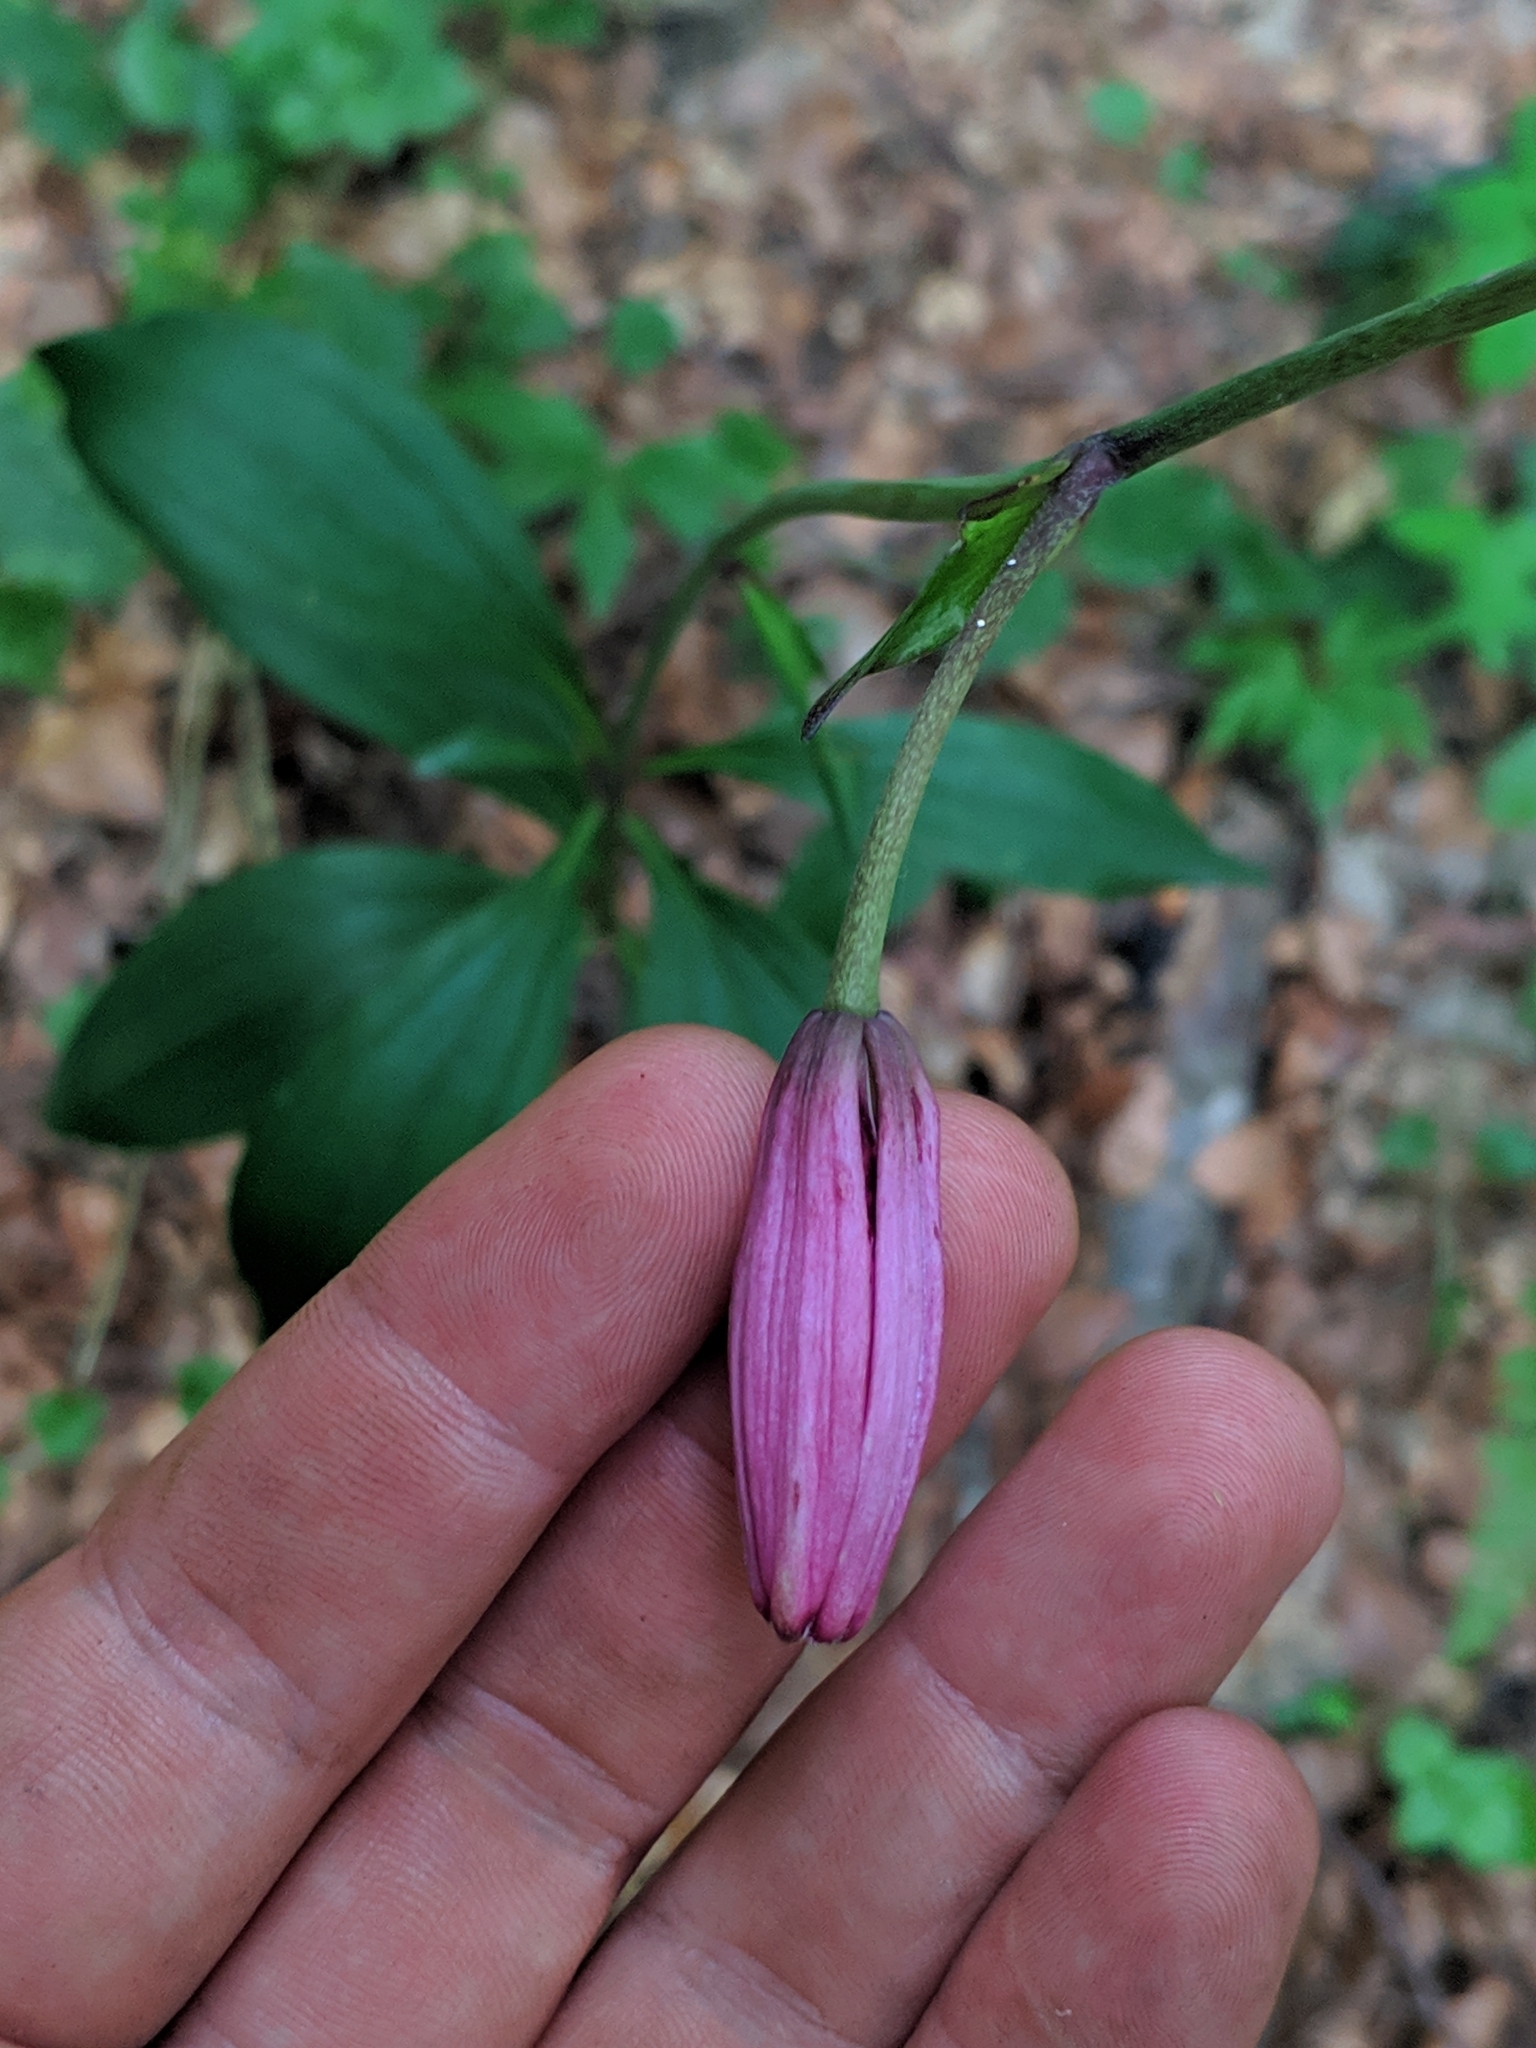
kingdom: Plantae
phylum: Tracheophyta
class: Liliopsida
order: Liliales
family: Liliaceae
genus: Lilium
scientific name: Lilium martagon
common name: Martagon lily
